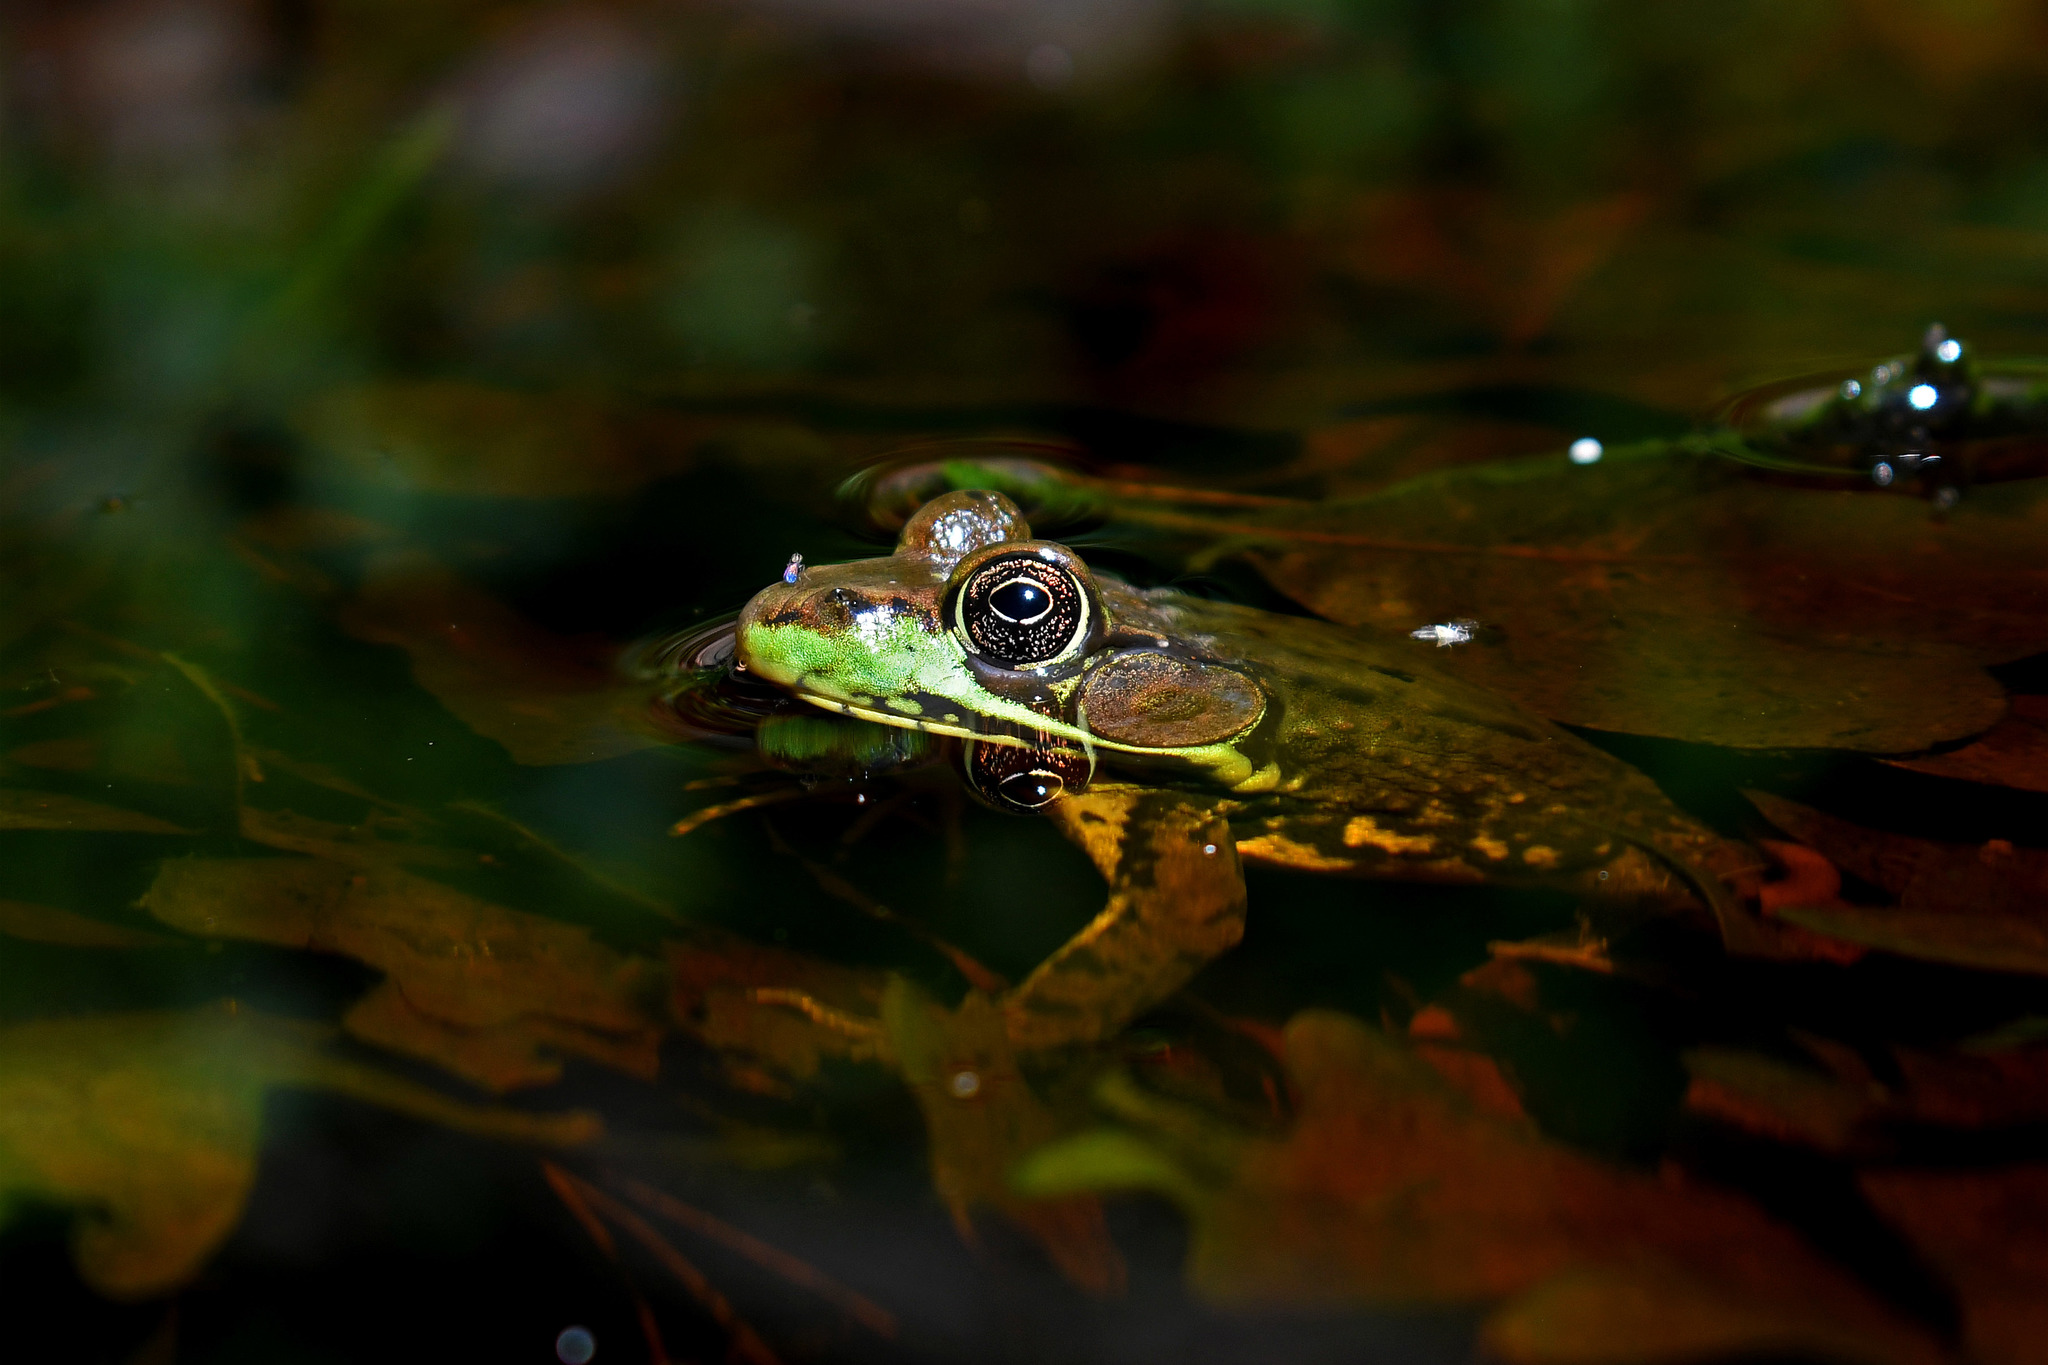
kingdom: Animalia
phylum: Chordata
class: Amphibia
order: Anura
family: Ranidae
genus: Lithobates
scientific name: Lithobates clamitans
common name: Green frog
